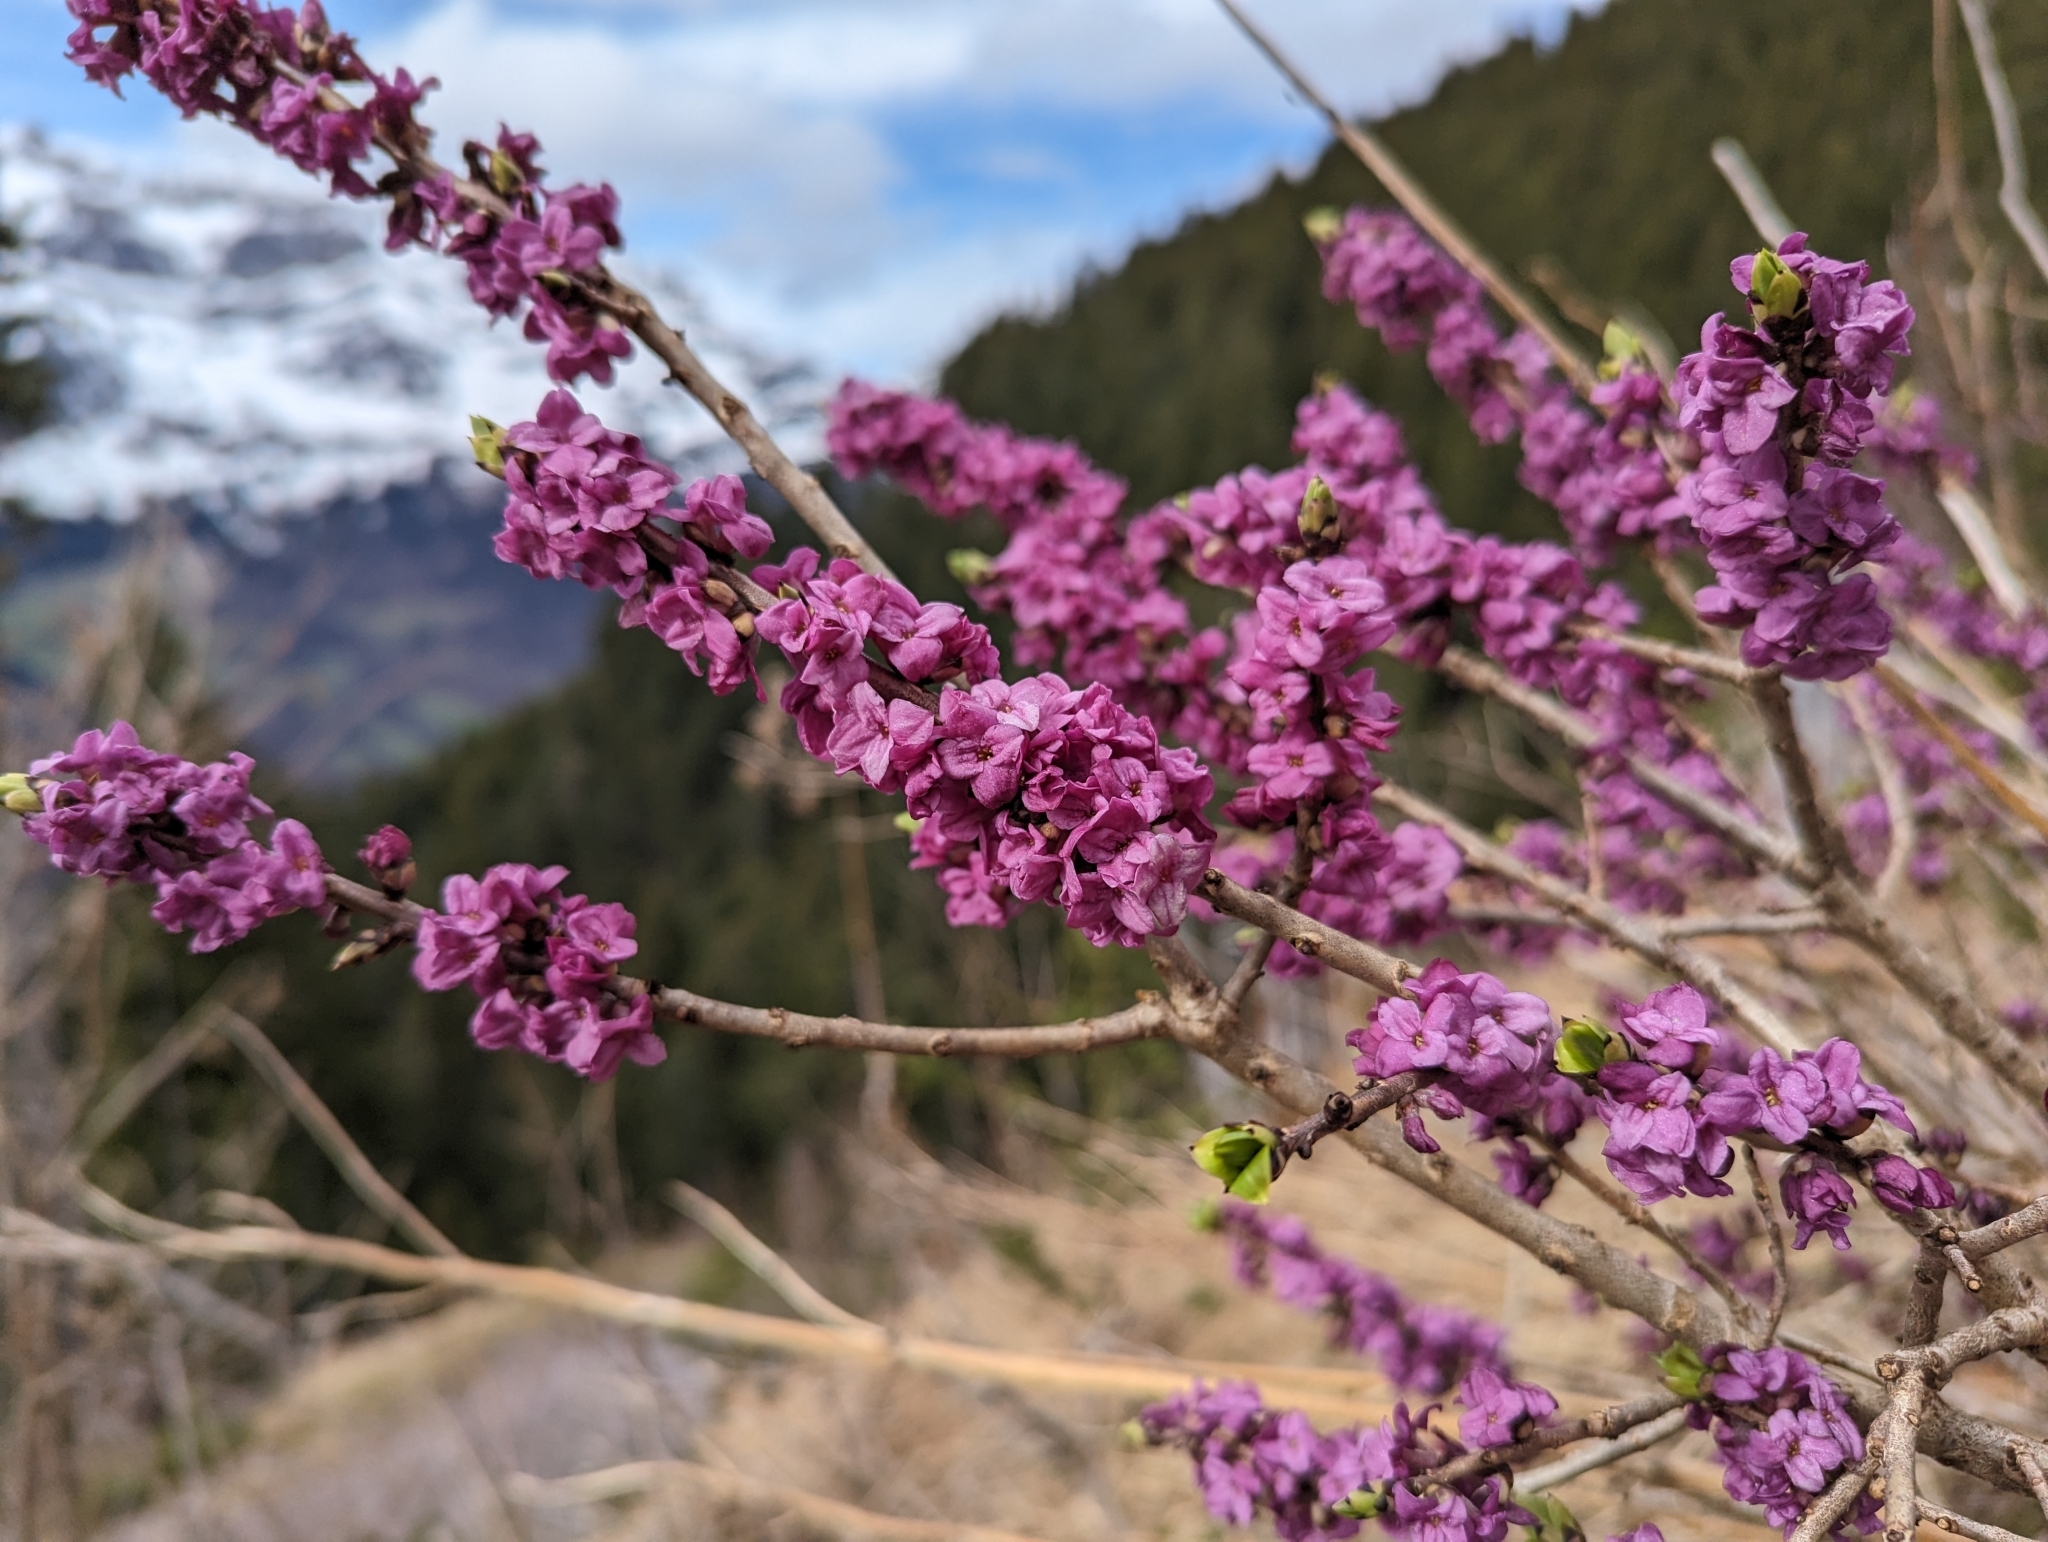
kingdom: Plantae
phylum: Tracheophyta
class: Magnoliopsida
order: Malvales
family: Thymelaeaceae
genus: Daphne
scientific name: Daphne mezereum
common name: Mezereon
